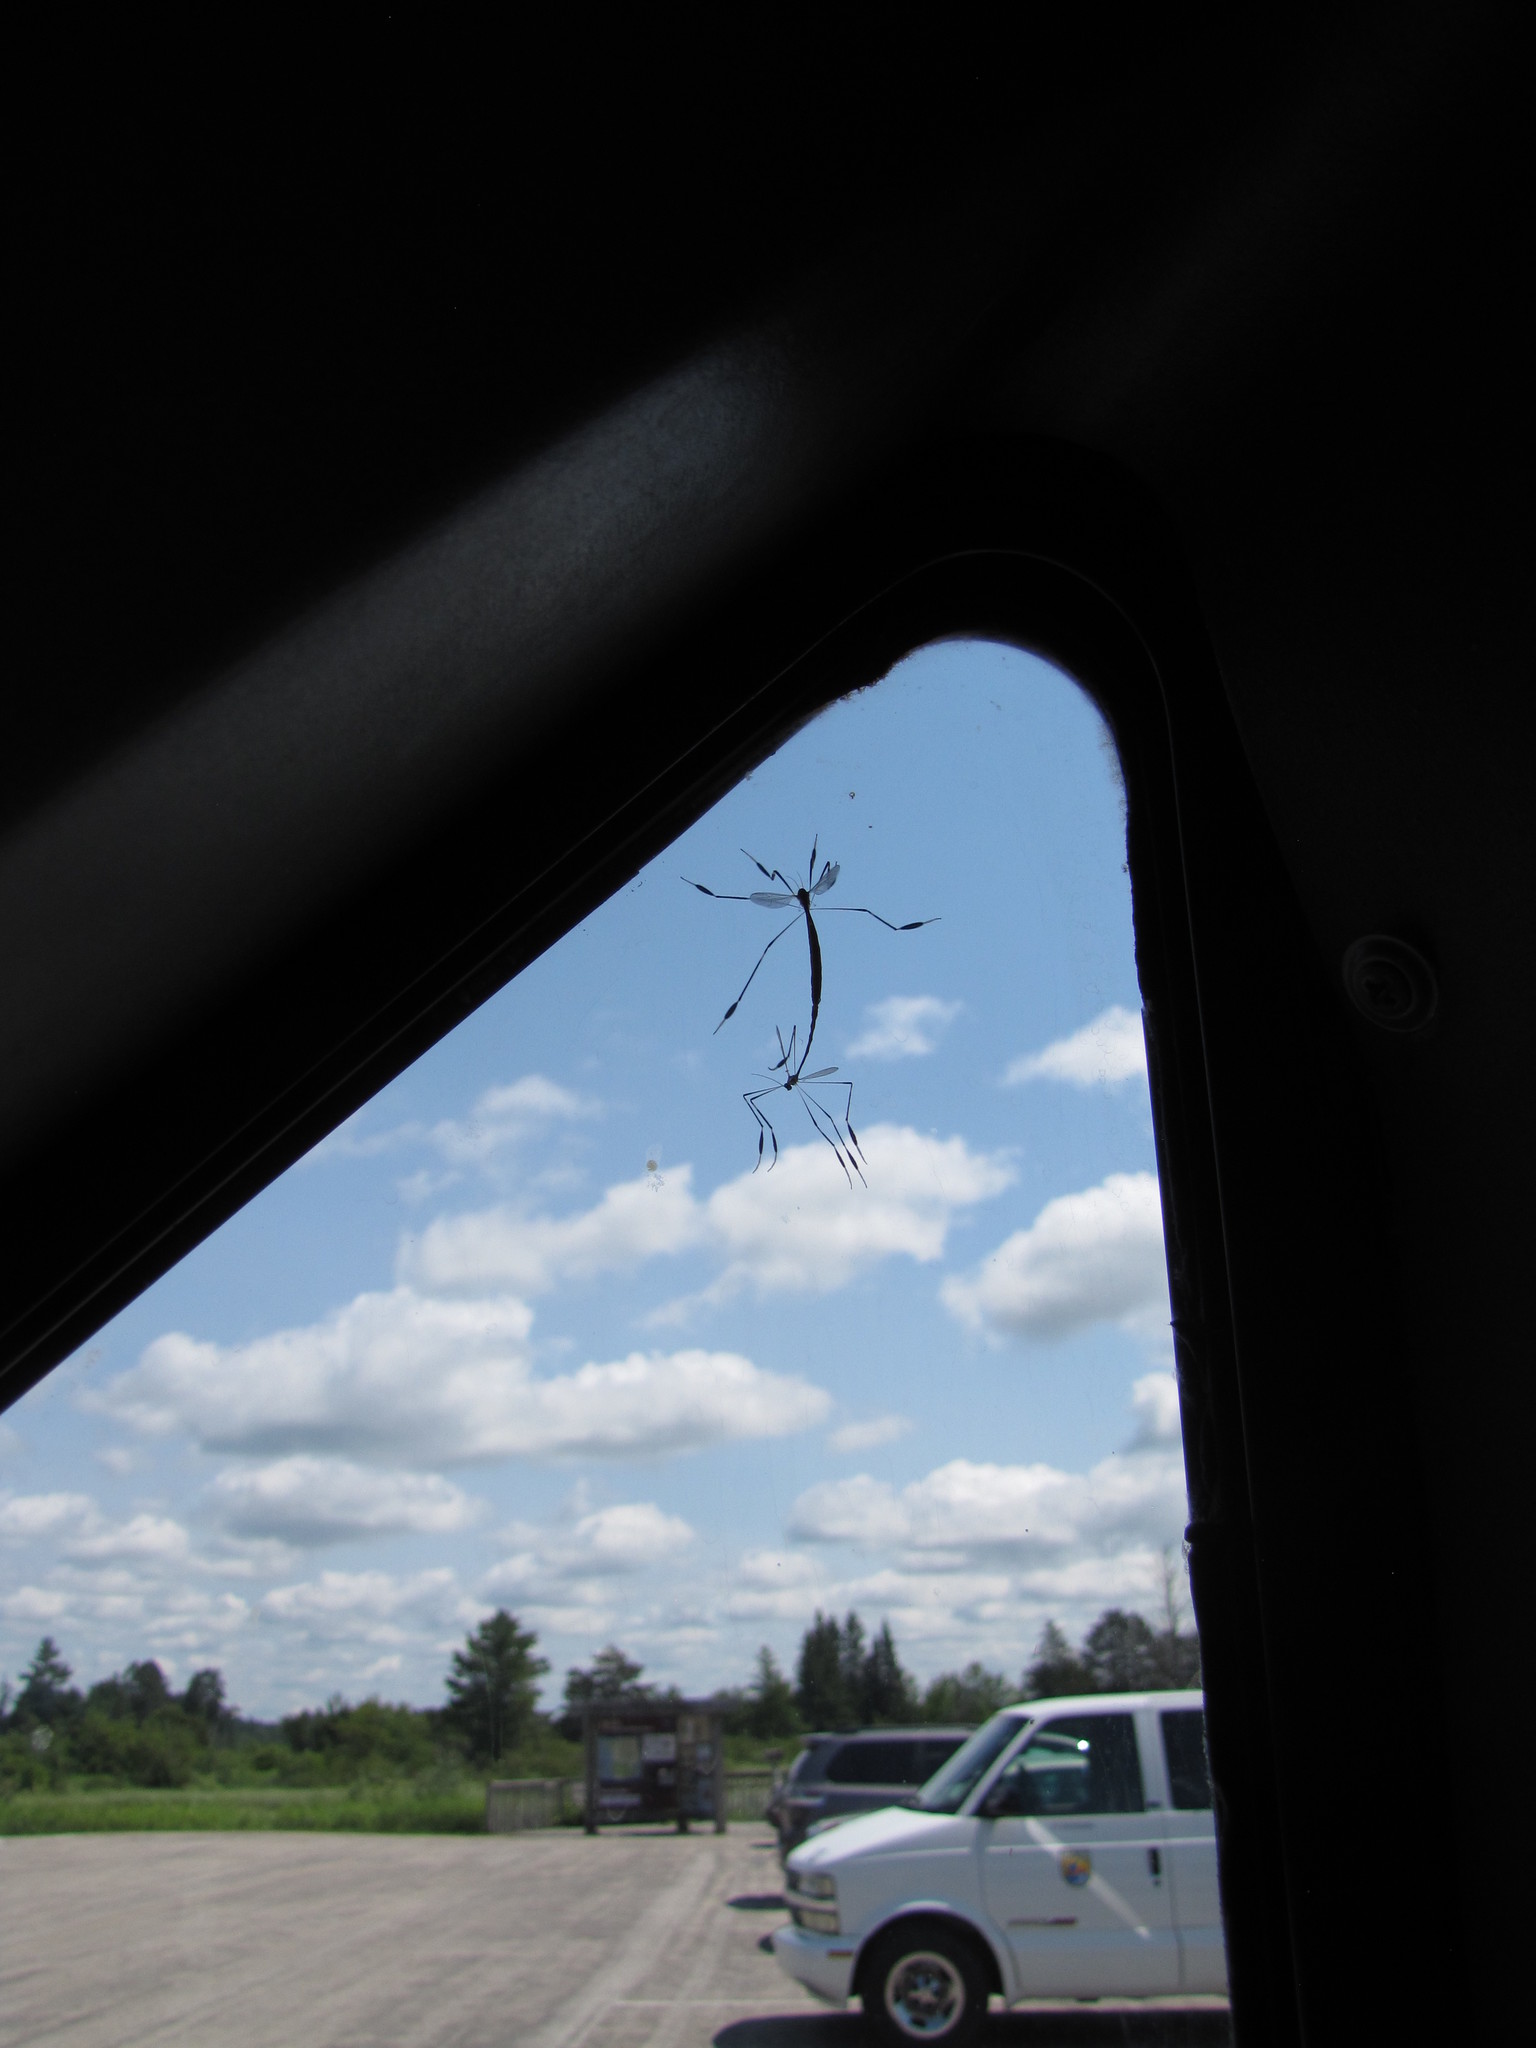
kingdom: Animalia
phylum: Arthropoda
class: Insecta
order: Diptera
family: Ptychopteridae
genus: Bittacomorpha
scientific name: Bittacomorpha clavipes
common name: Eastern phantom crane fly
